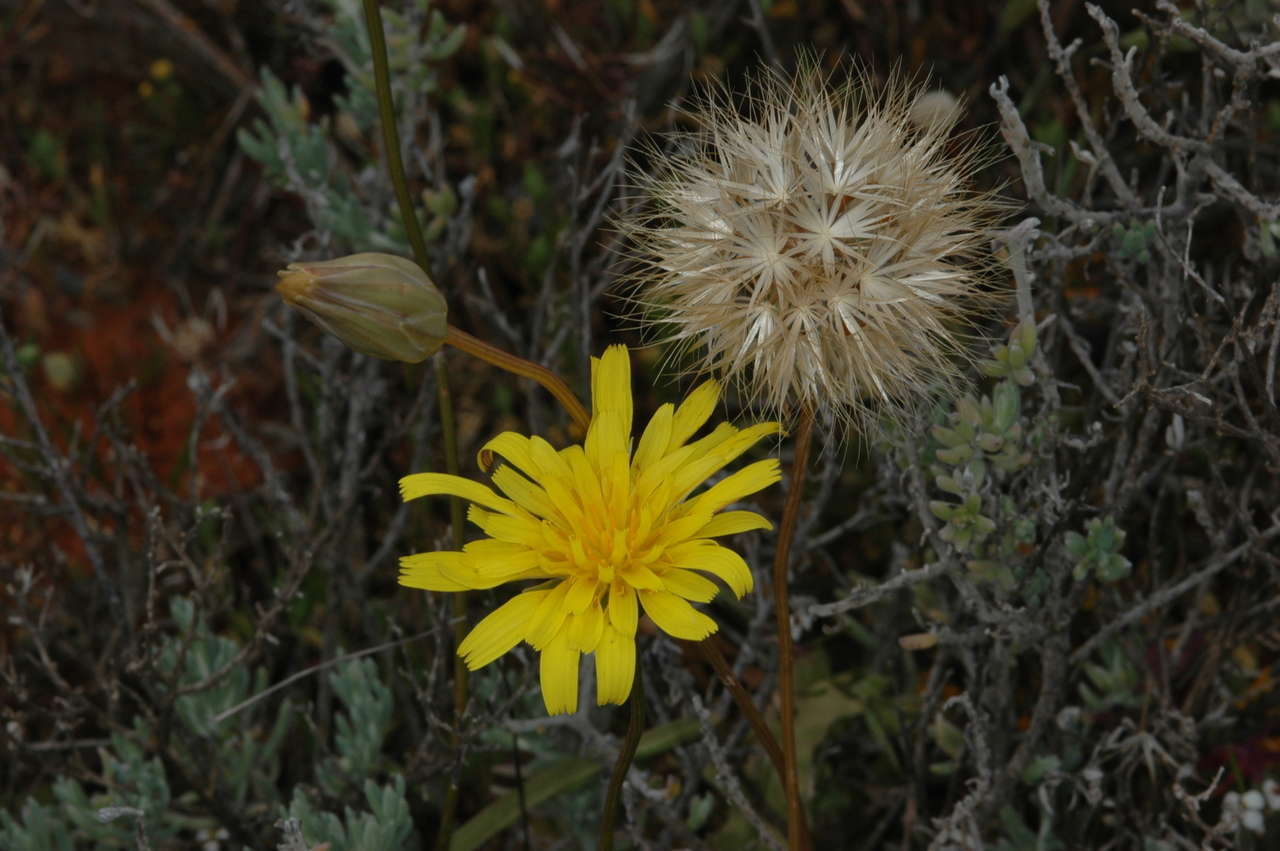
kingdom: Plantae
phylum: Tracheophyta
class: Magnoliopsida
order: Asterales
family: Asteraceae
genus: Microseris
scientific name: Microseris lanceolata
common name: Yam daisy
